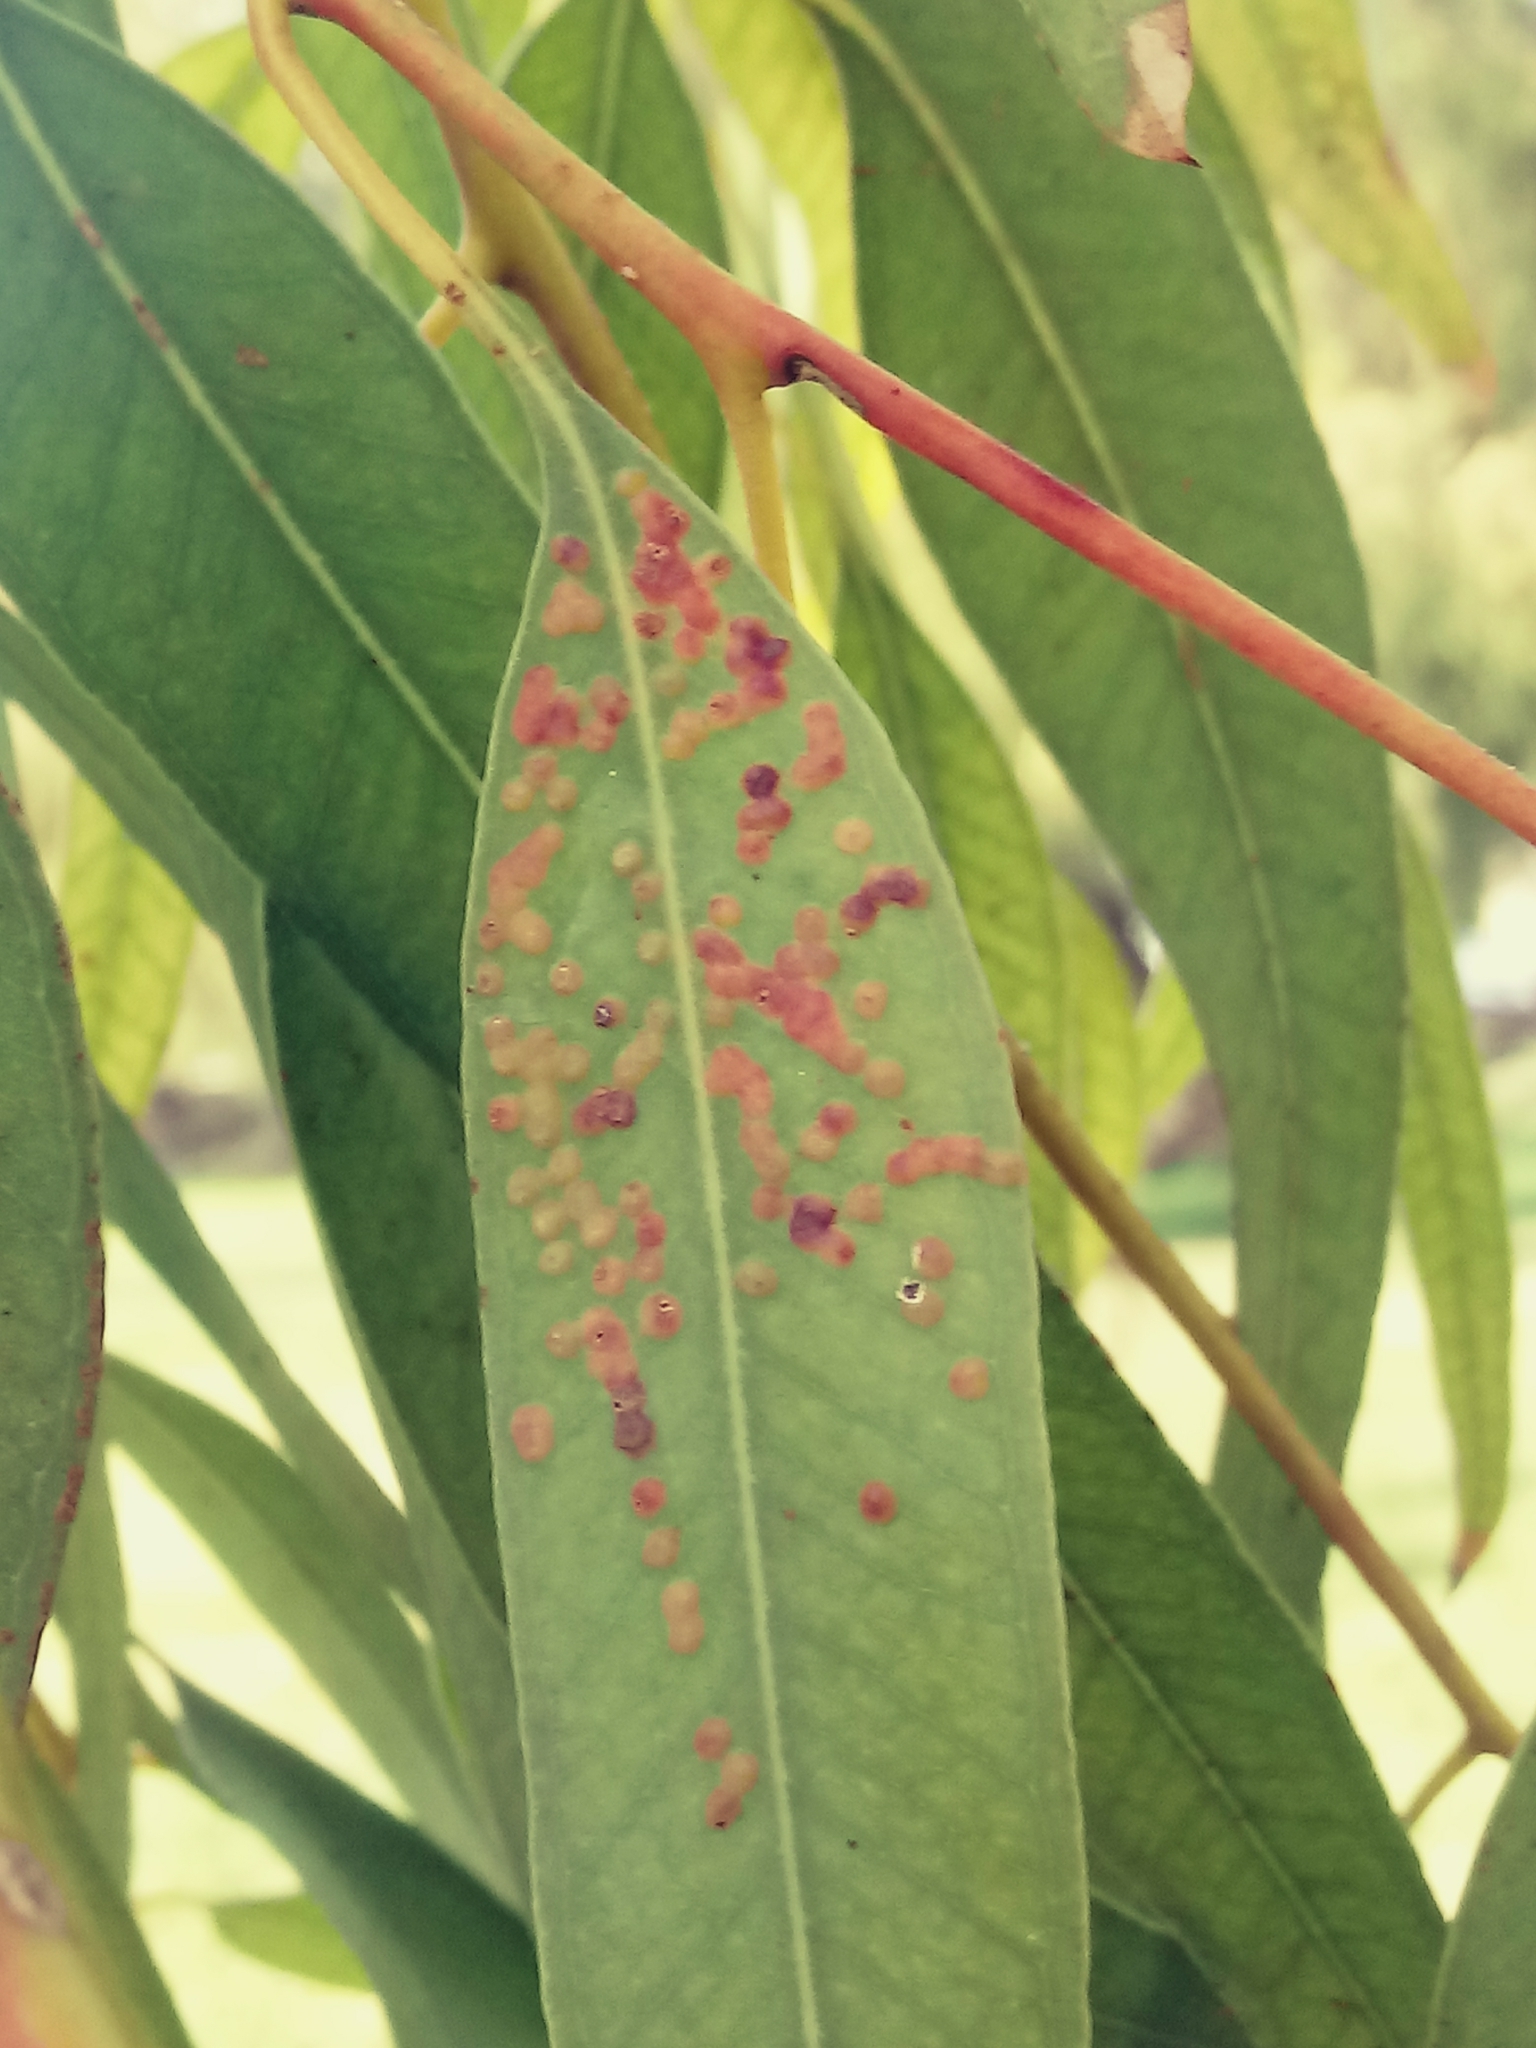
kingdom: Animalia
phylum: Arthropoda
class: Insecta
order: Hymenoptera
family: Eulophidae
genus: Ophelimus
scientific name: Ophelimus maskelli
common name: Gall wasp
